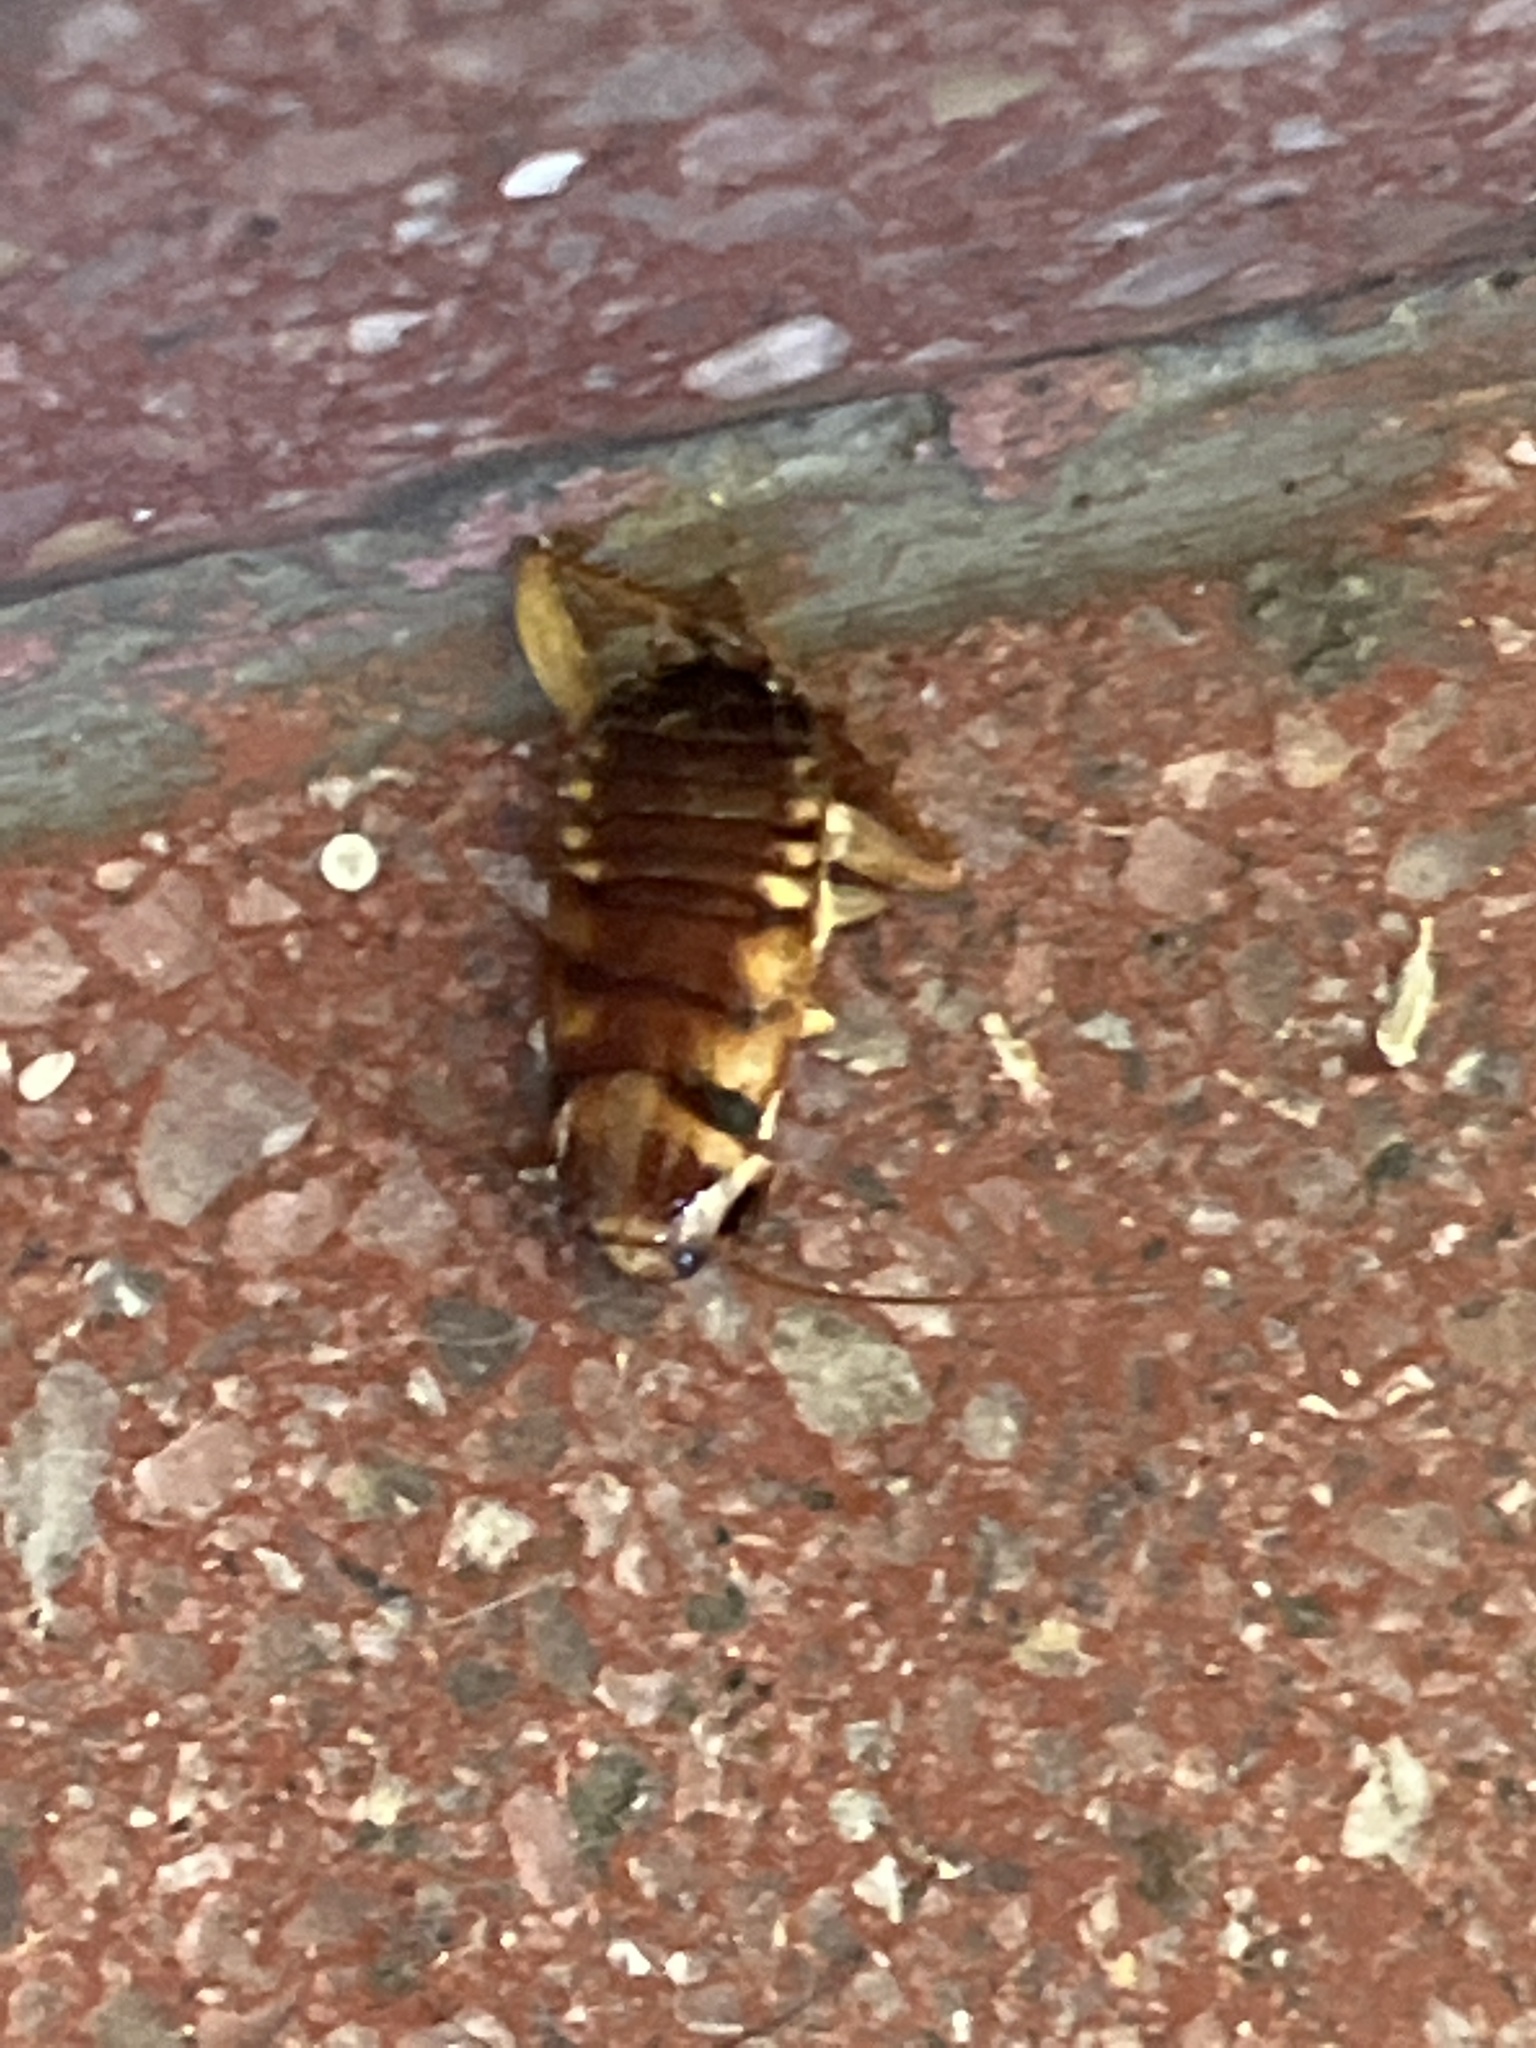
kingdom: Animalia
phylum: Arthropoda
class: Insecta
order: Blattodea
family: Blattidae
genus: Periplaneta
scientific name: Periplaneta australasiae
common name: Australian cockroach
